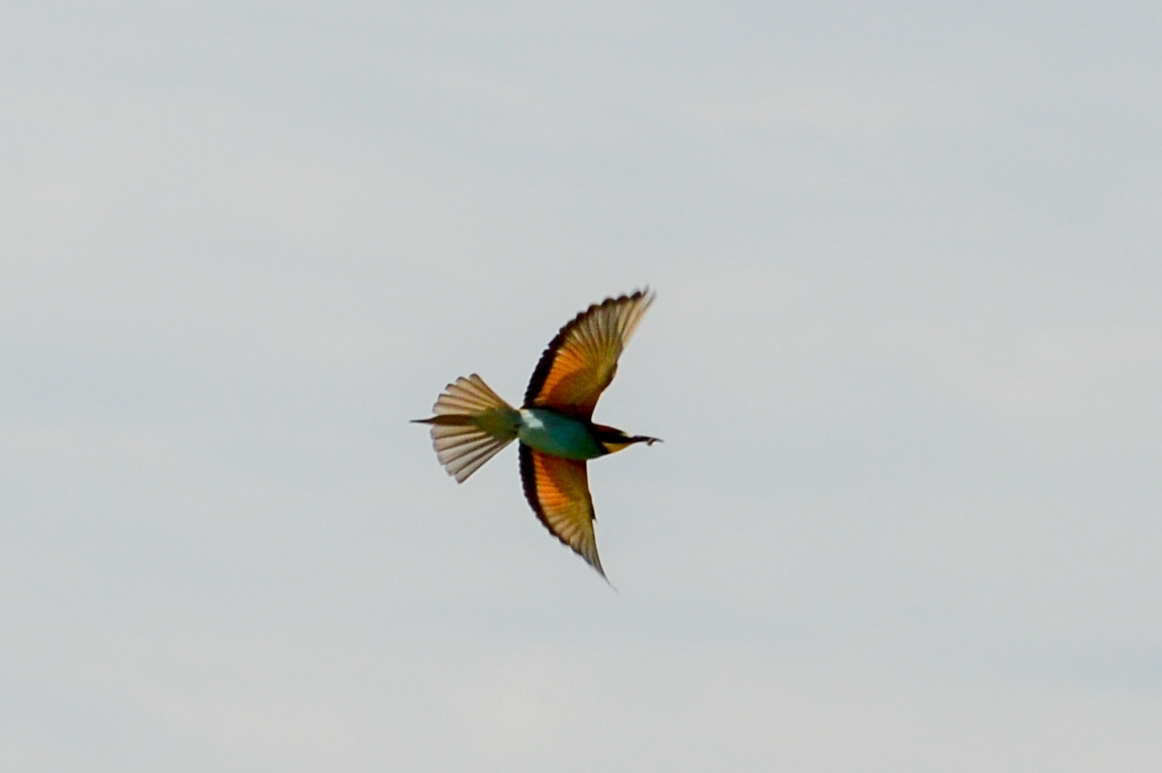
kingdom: Animalia
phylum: Chordata
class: Aves
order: Coraciiformes
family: Meropidae
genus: Merops
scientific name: Merops apiaster
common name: European bee-eater
